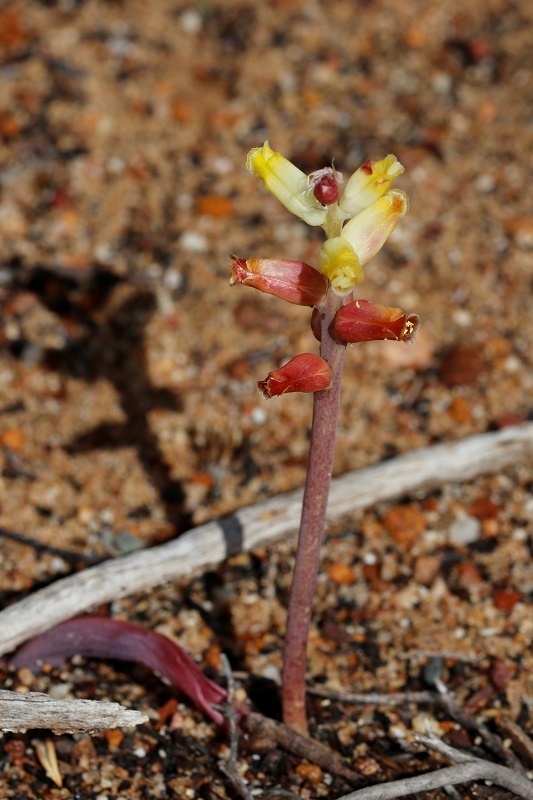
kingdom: Plantae
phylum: Tracheophyta
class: Liliopsida
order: Asparagales
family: Asparagaceae
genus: Lachenalia
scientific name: Lachenalia lutea
